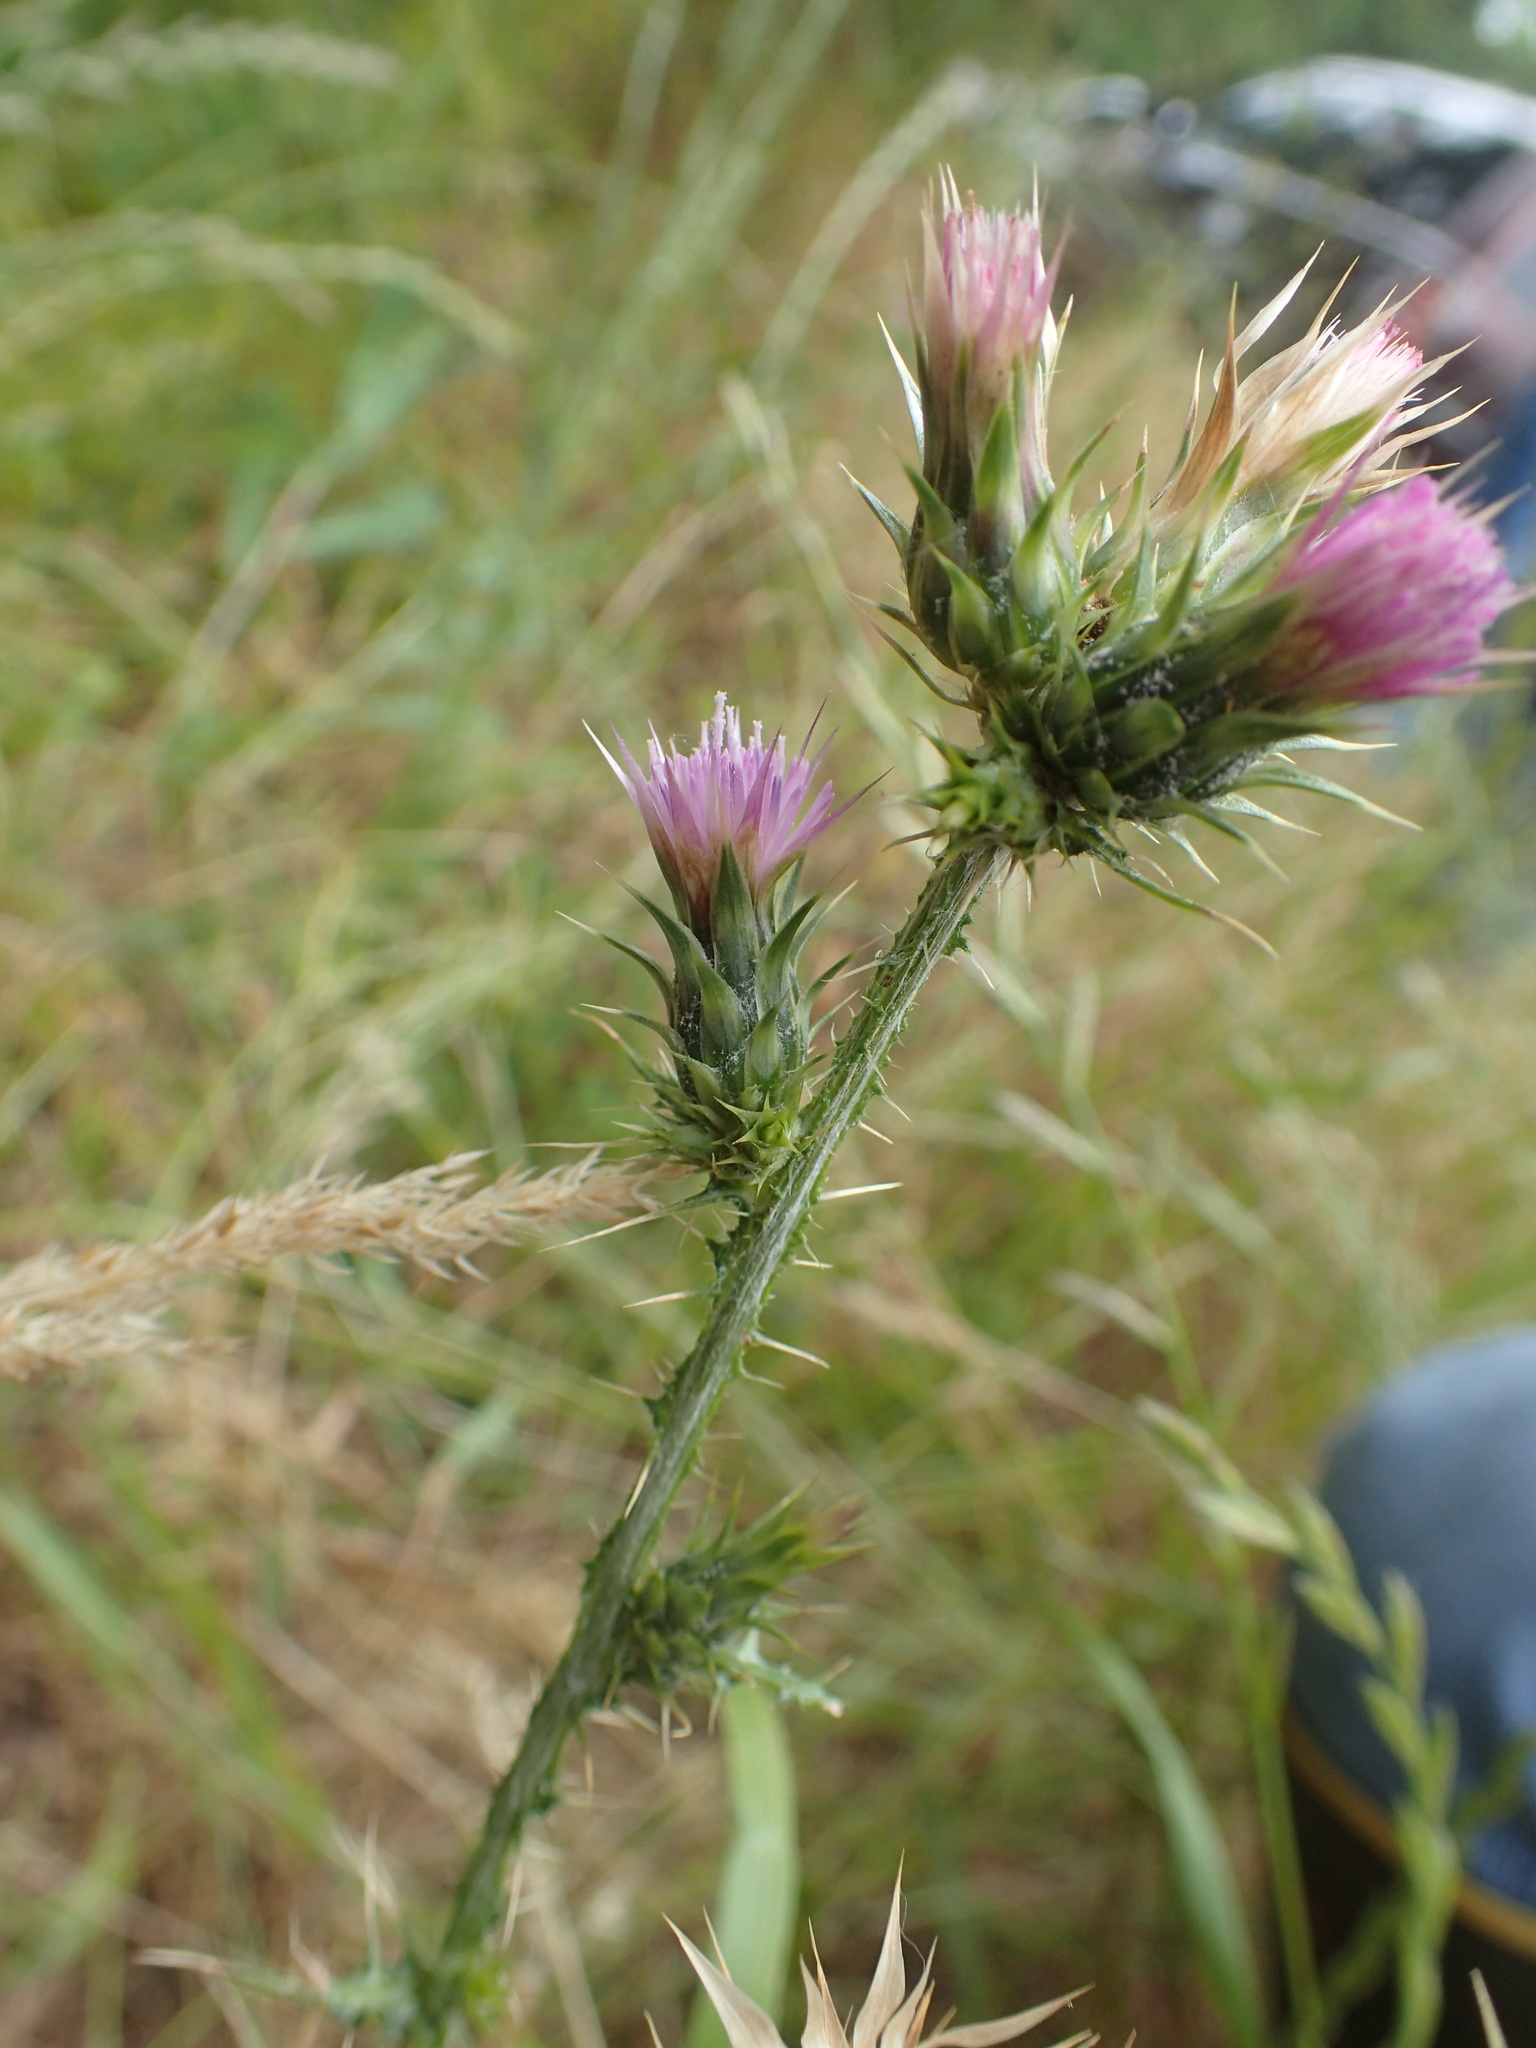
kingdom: Plantae
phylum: Tracheophyta
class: Magnoliopsida
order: Asterales
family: Asteraceae
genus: Carduus
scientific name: Carduus tenuiflorus
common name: Slender thistle
